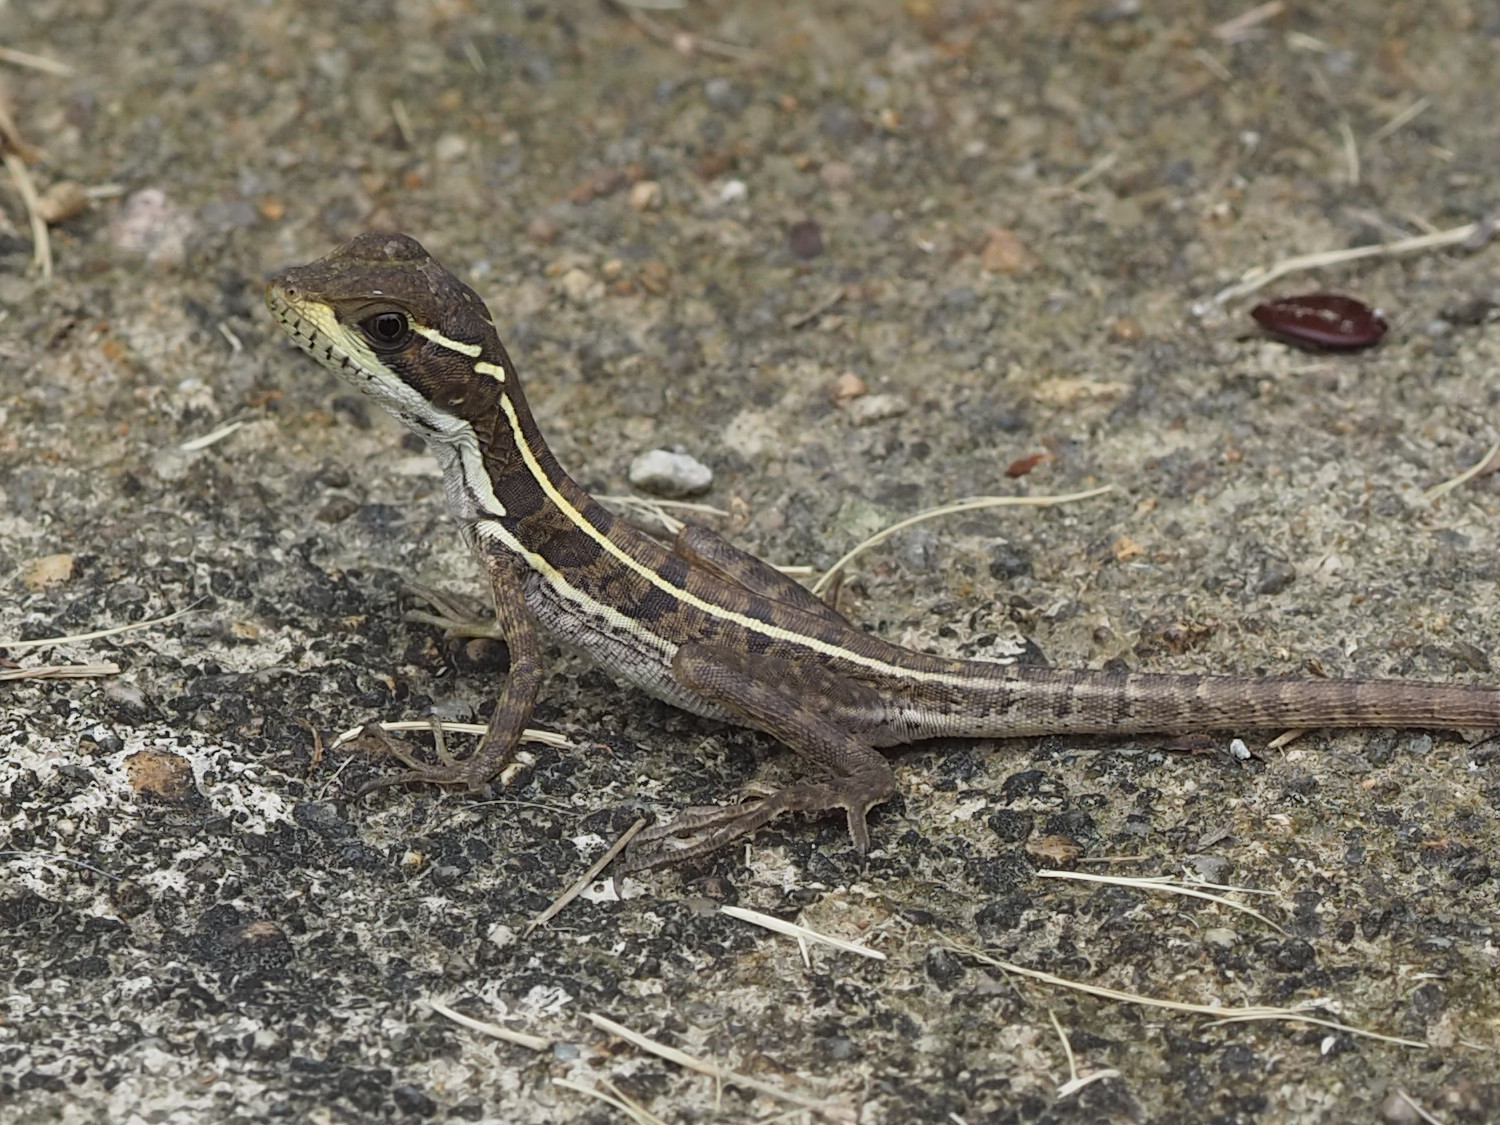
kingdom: Animalia
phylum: Chordata
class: Squamata
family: Corytophanidae
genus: Basiliscus
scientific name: Basiliscus vittatus
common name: Brown basilisk
